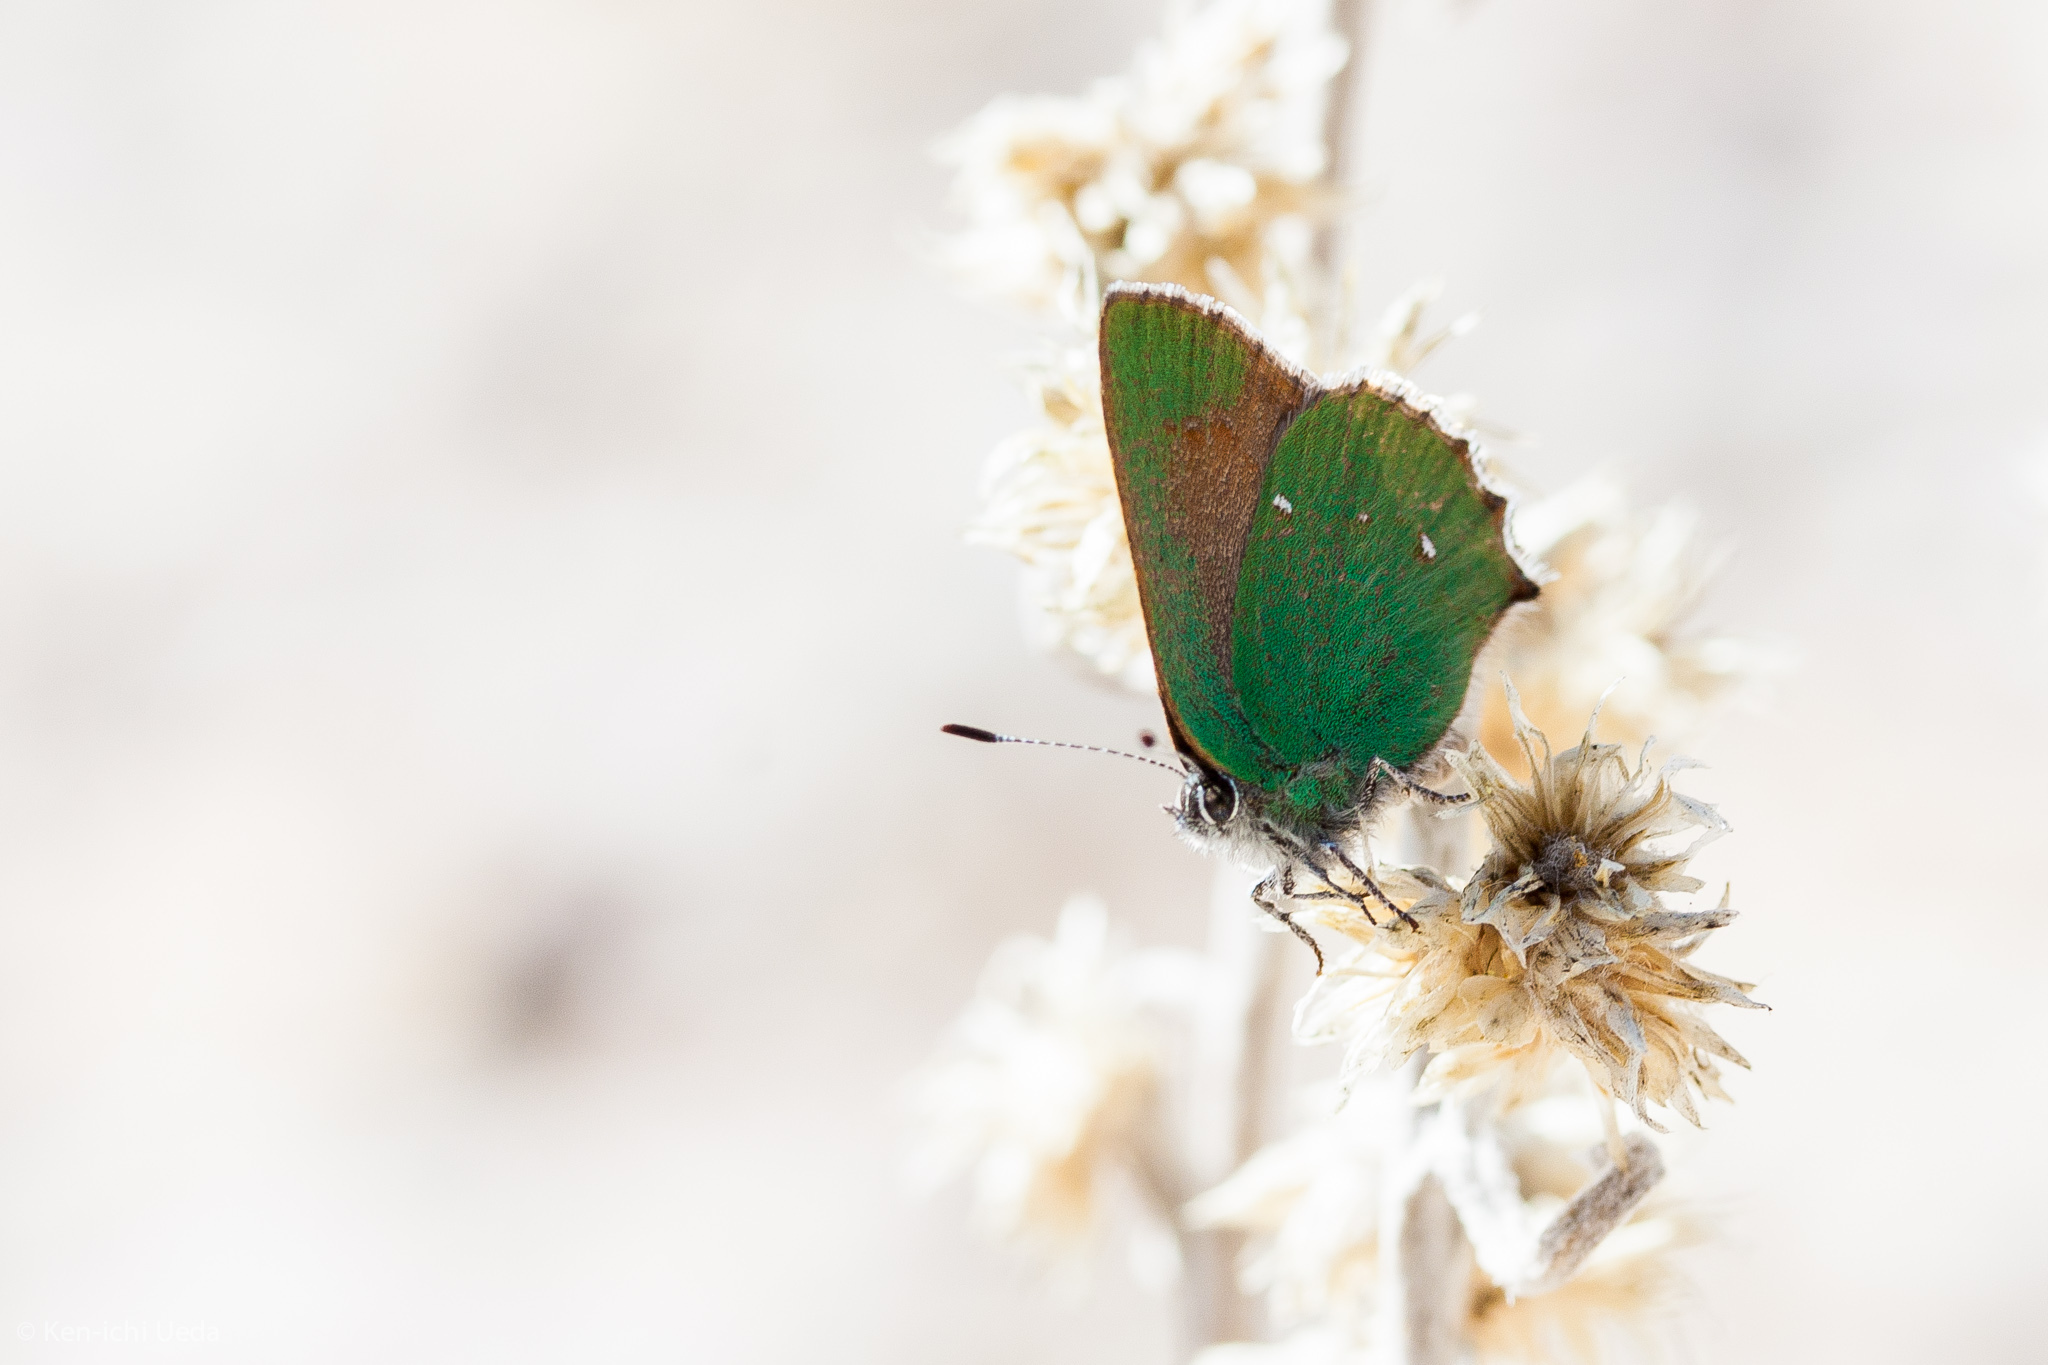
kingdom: Animalia
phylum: Arthropoda
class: Insecta
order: Lepidoptera
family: Lycaenidae
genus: Callophrys
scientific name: Callophrys dumetorum
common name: Bramble hairstreak
